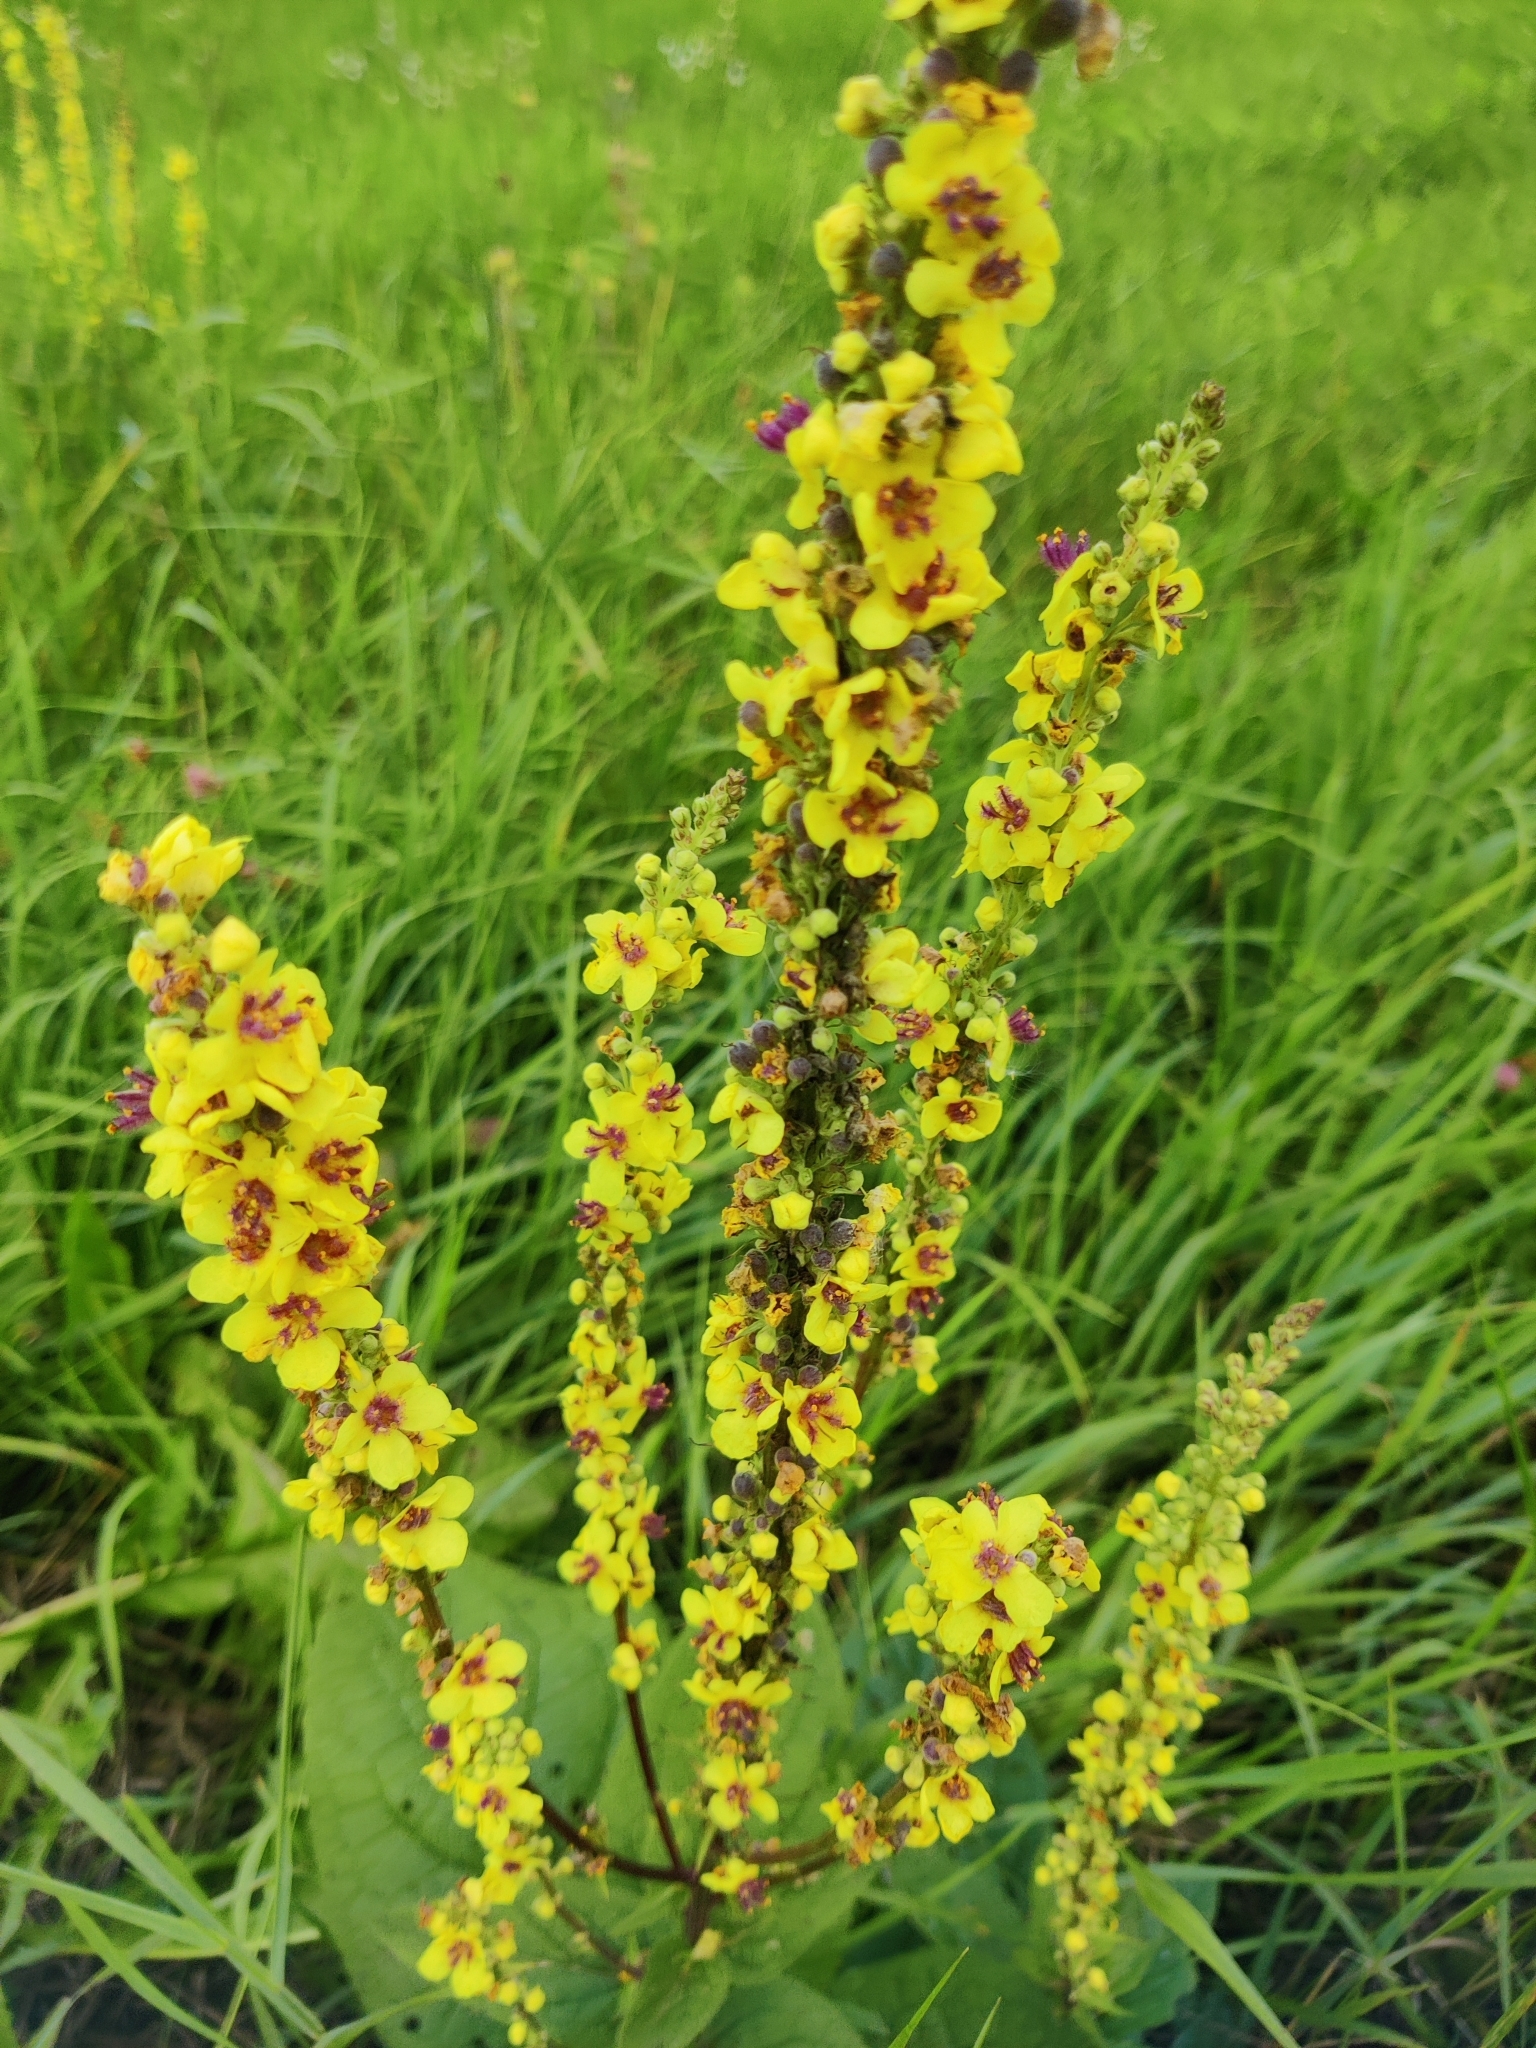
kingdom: Plantae
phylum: Tracheophyta
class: Magnoliopsida
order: Lamiales
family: Scrophulariaceae
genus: Verbascum
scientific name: Verbascum nigrum
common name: Dark mullein
